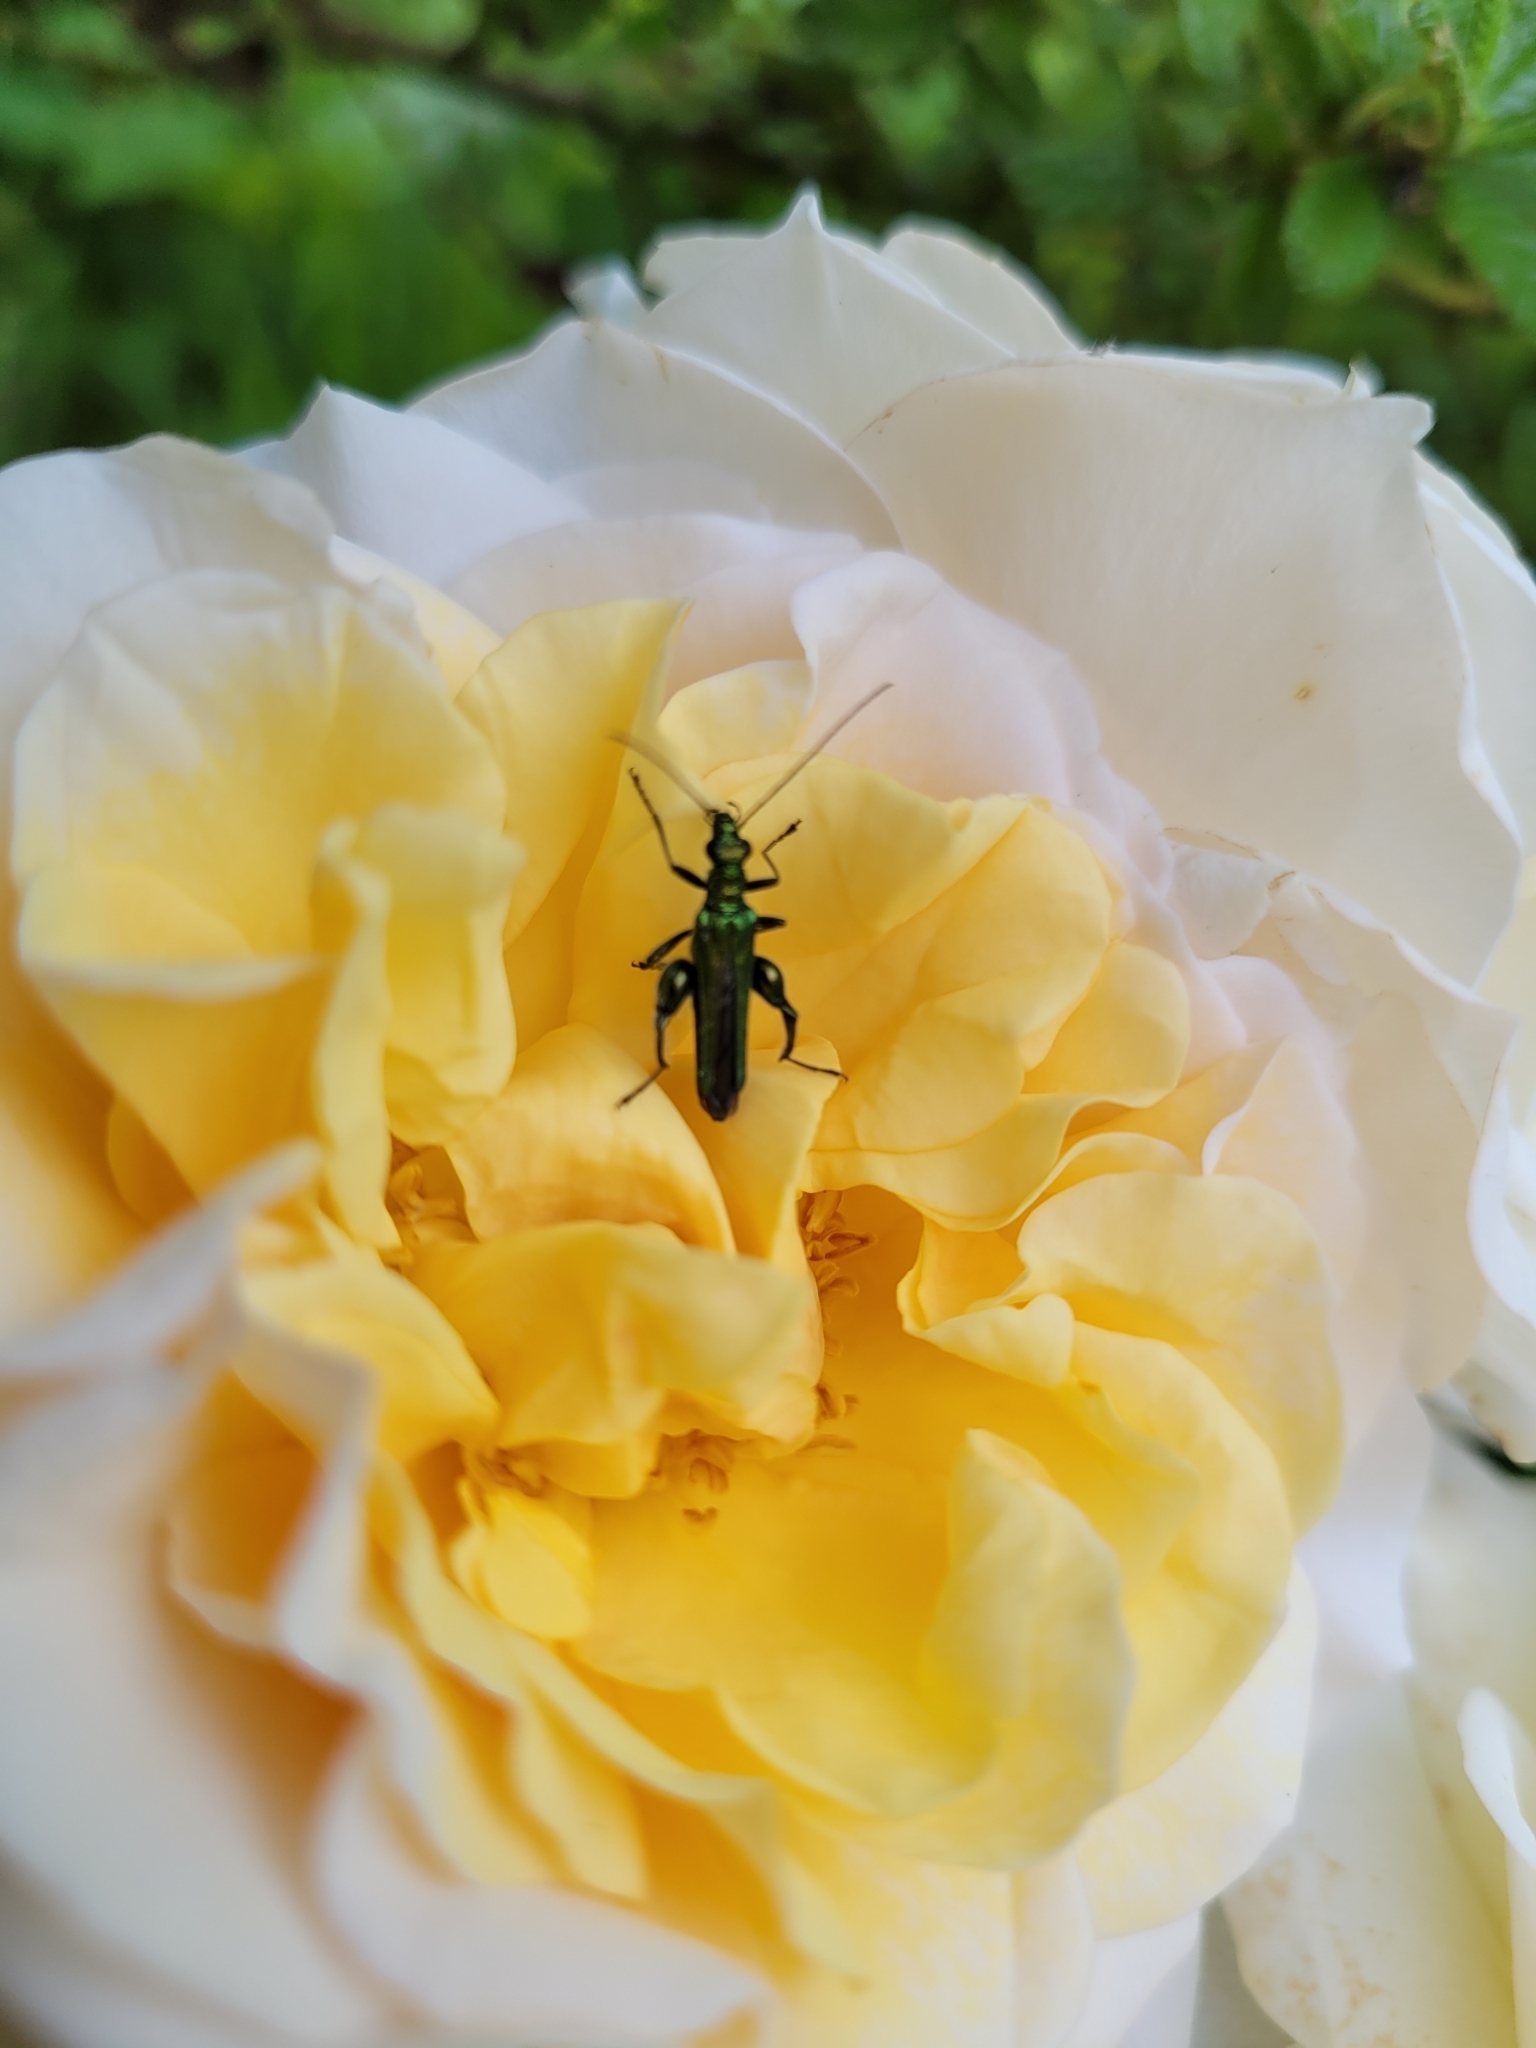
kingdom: Animalia
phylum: Arthropoda
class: Insecta
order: Coleoptera
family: Oedemeridae
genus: Oedemera
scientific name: Oedemera nobilis
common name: Swollen-thighed beetle
